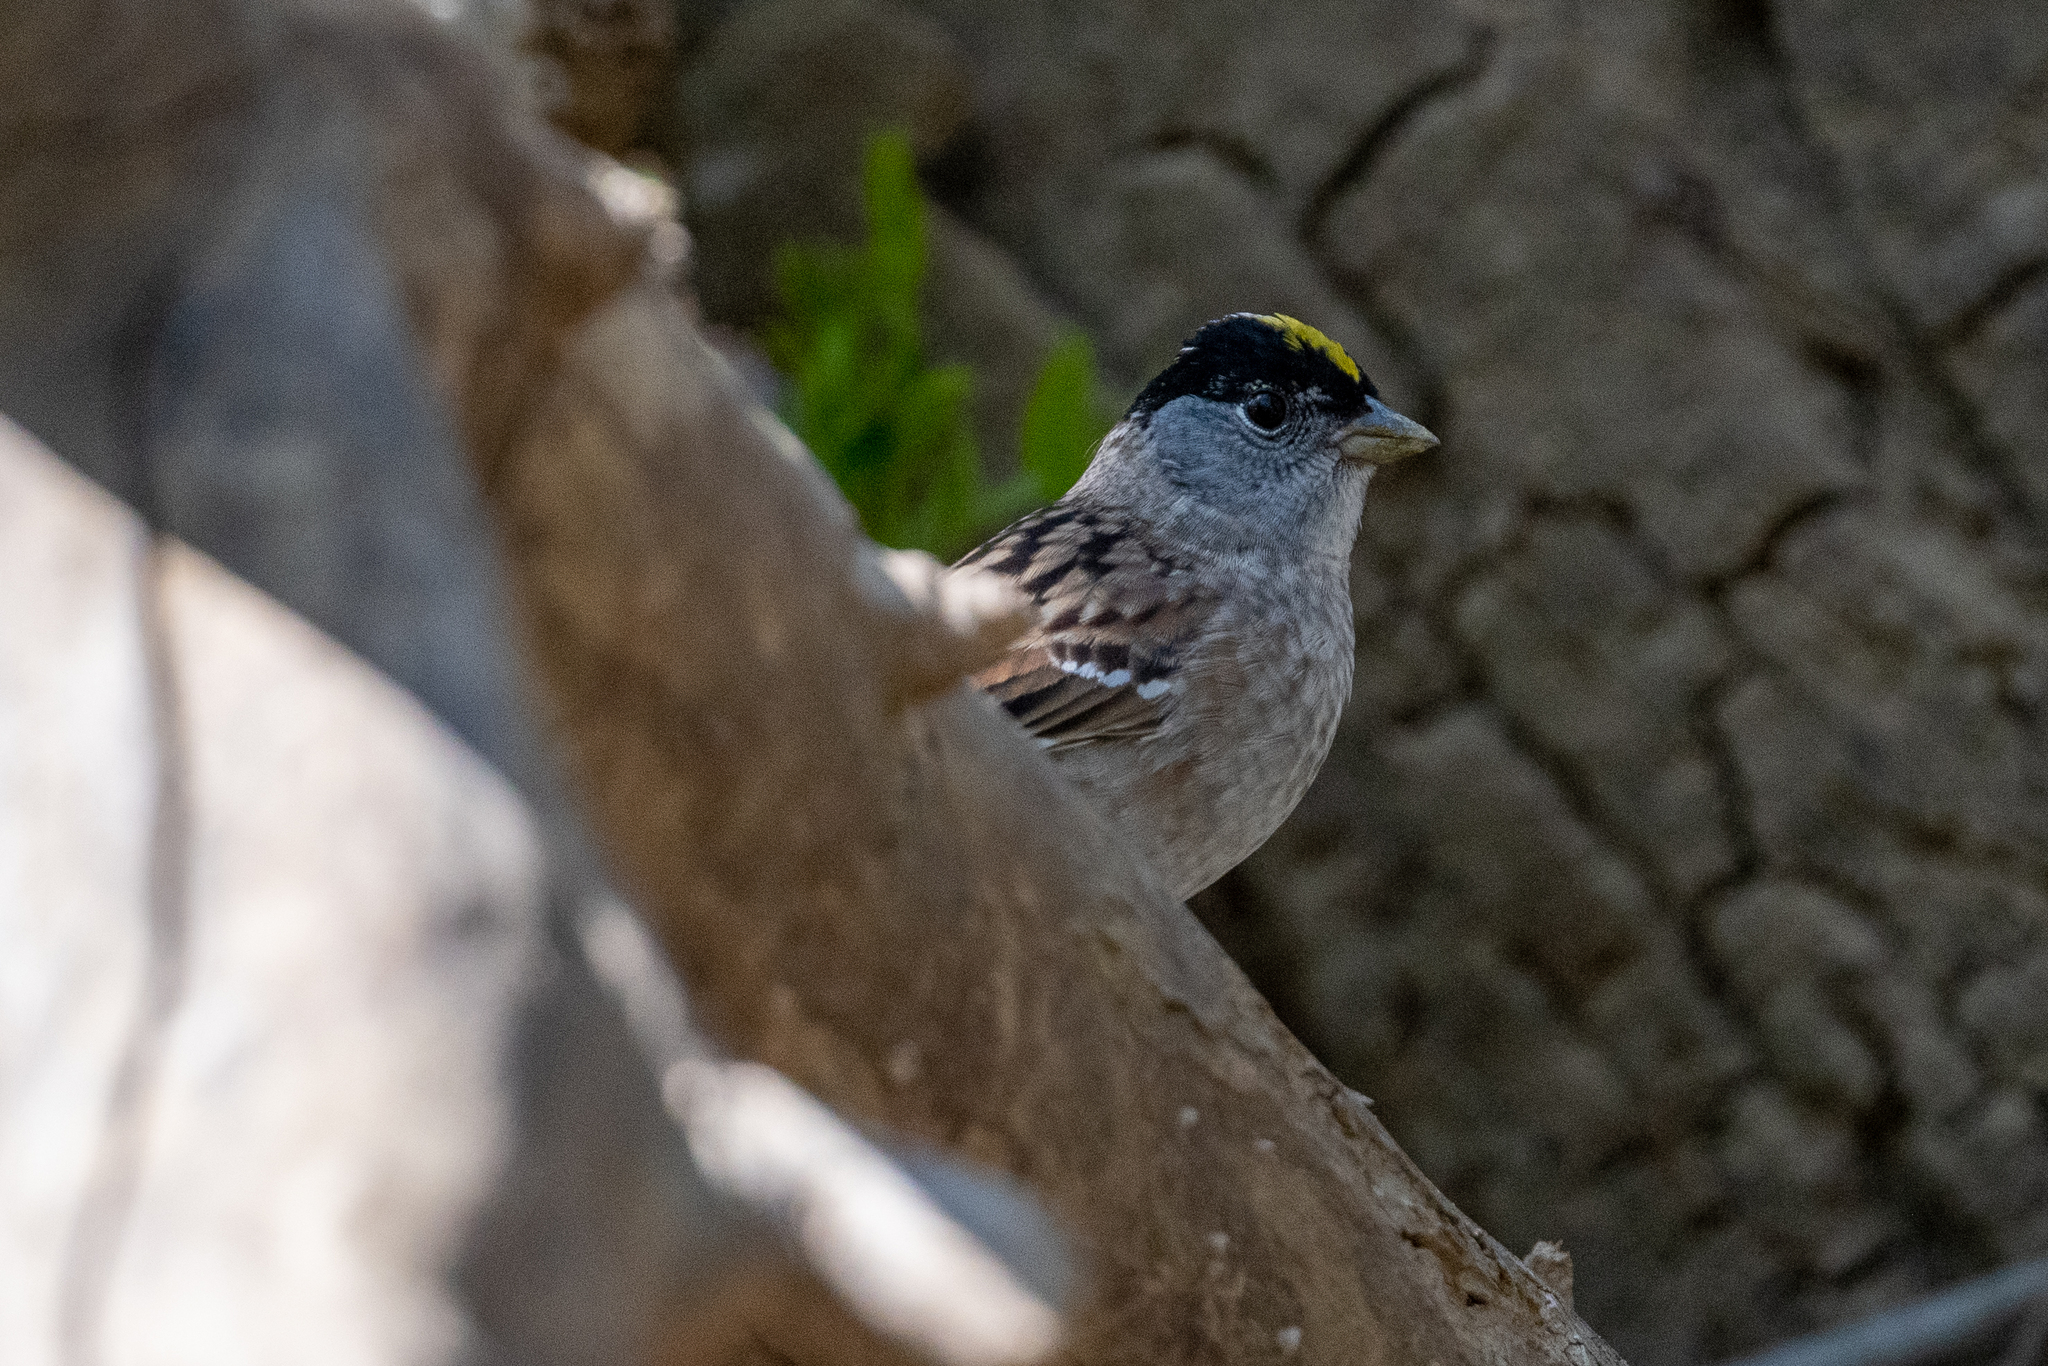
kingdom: Animalia
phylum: Chordata
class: Aves
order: Passeriformes
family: Passerellidae
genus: Zonotrichia
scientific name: Zonotrichia atricapilla
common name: Golden-crowned sparrow
